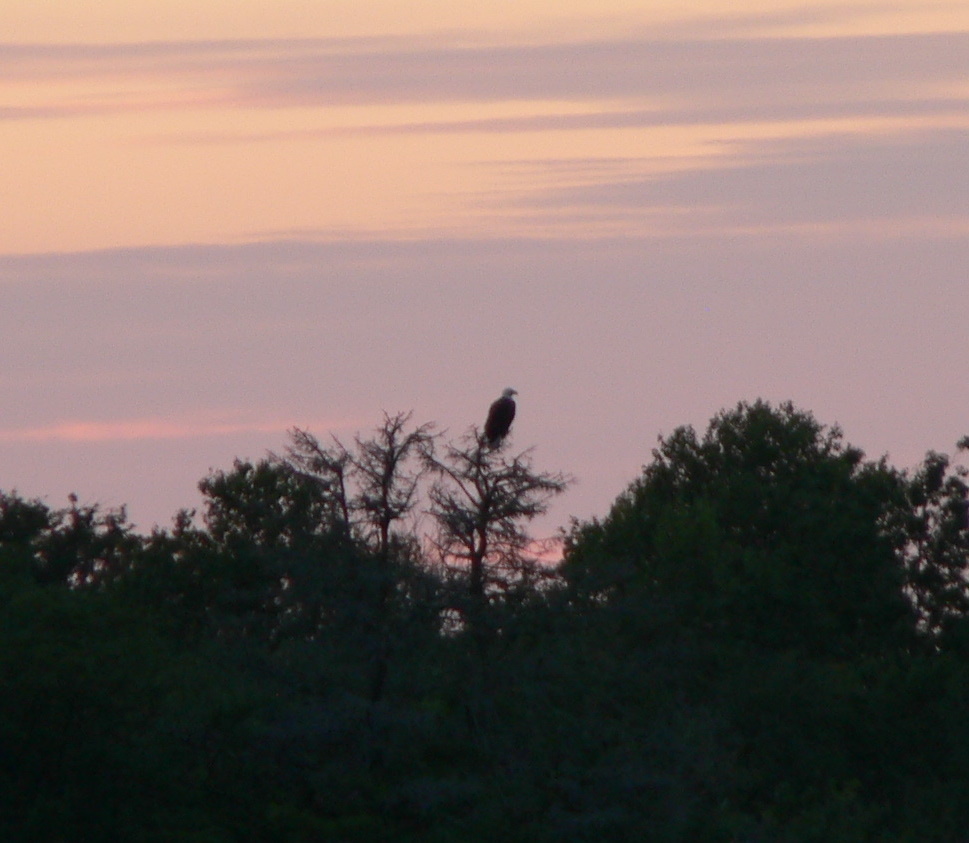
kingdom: Animalia
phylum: Chordata
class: Aves
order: Accipitriformes
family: Accipitridae
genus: Haliaeetus
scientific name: Haliaeetus leucocephalus
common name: Bald eagle
